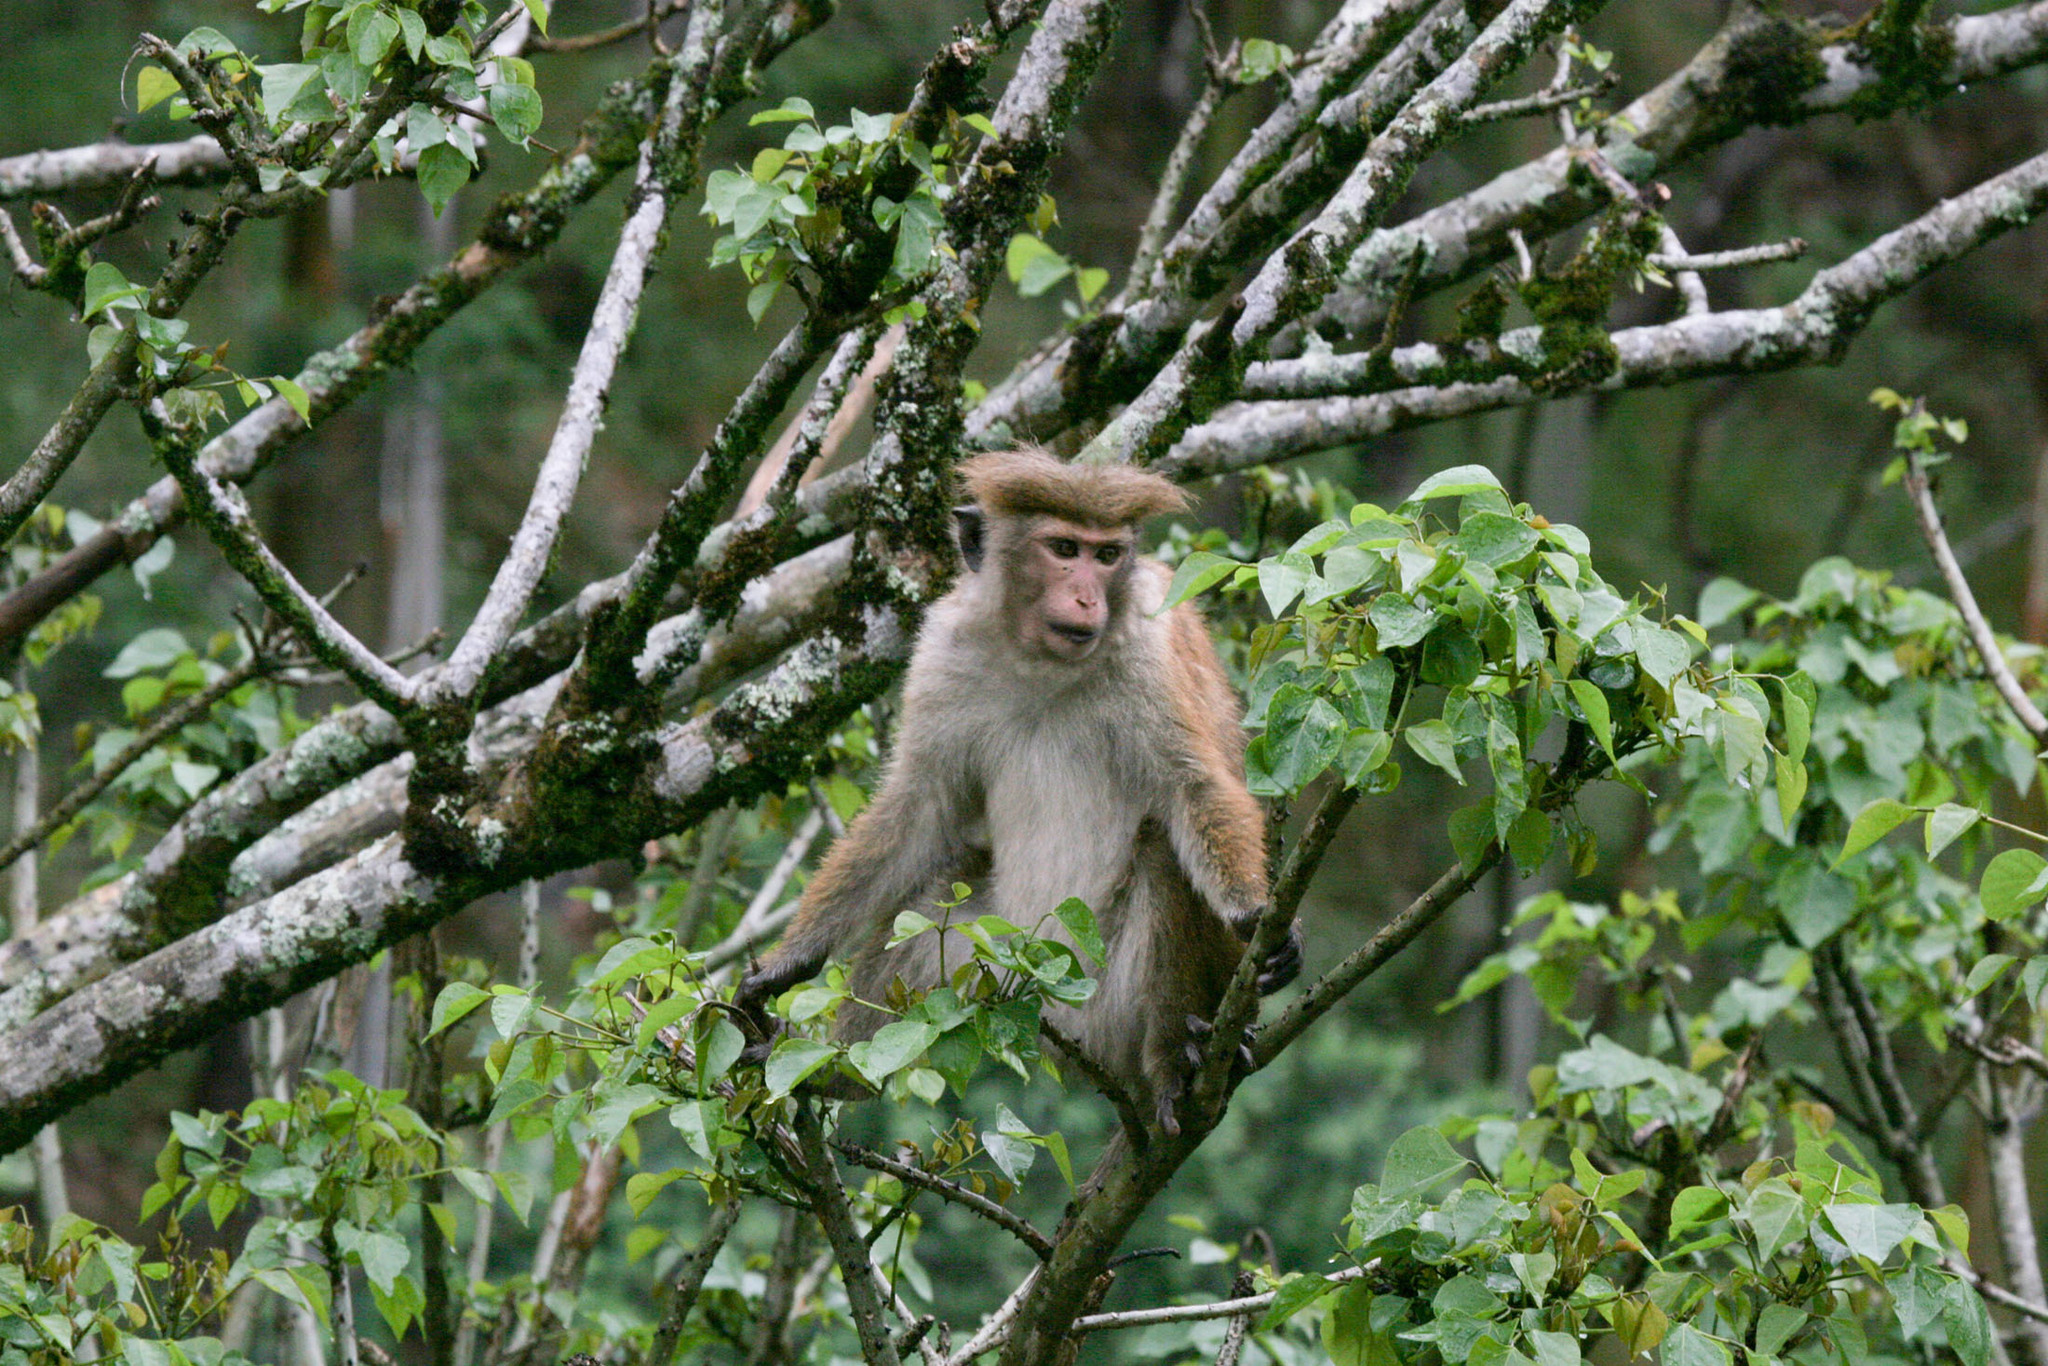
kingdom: Animalia
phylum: Chordata
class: Mammalia
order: Primates
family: Cercopithecidae
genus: Macaca
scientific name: Macaca sinica
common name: Toque macaque
